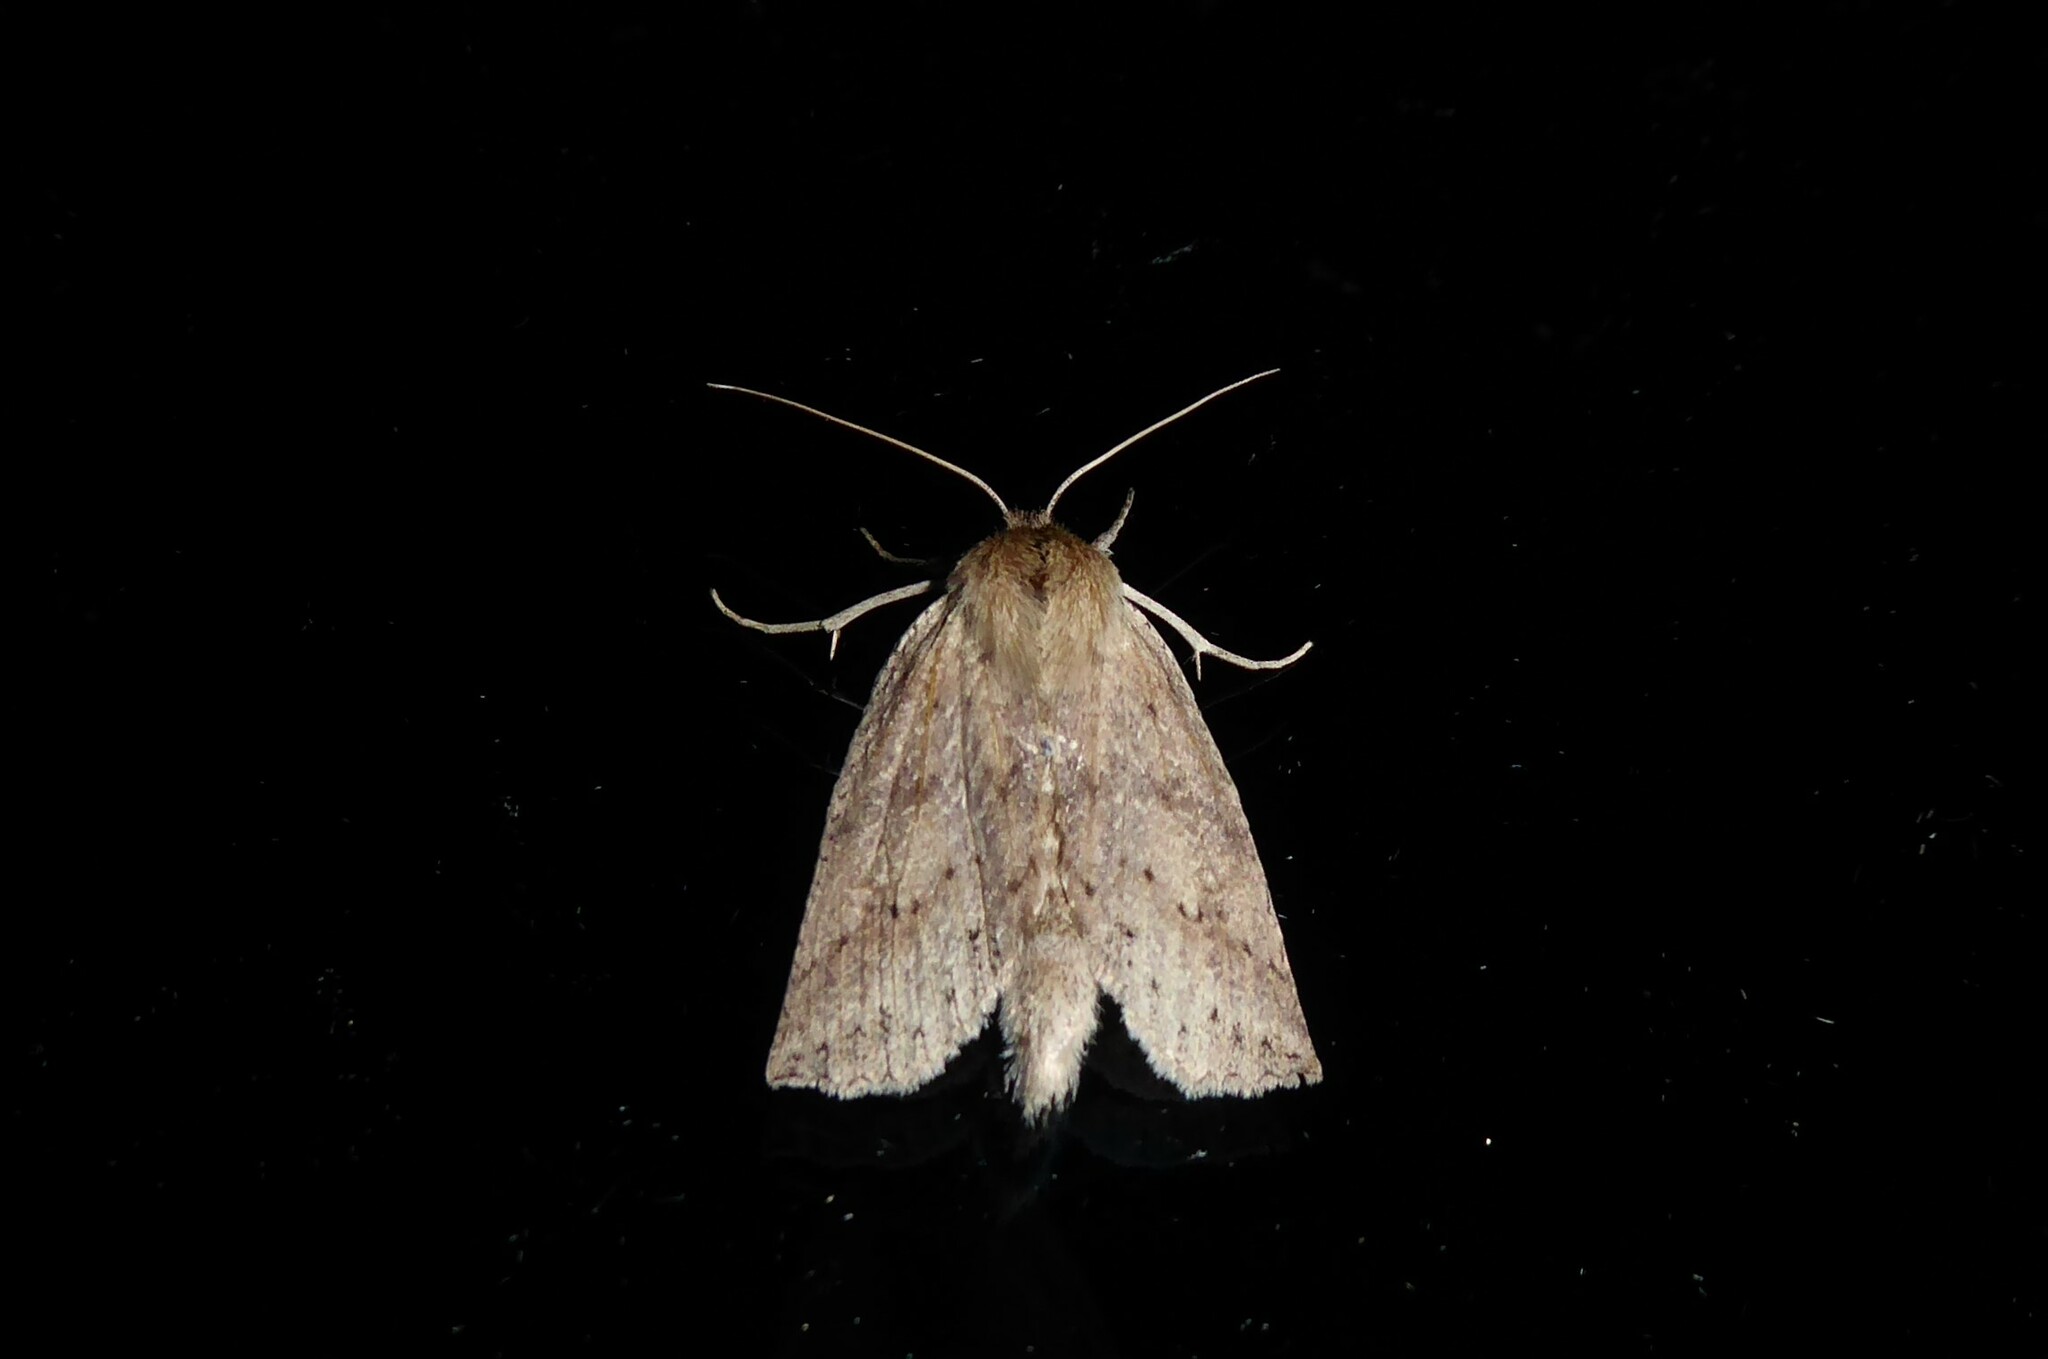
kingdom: Animalia
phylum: Arthropoda
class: Insecta
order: Lepidoptera
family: Geometridae
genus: Declana
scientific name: Declana leptomera
